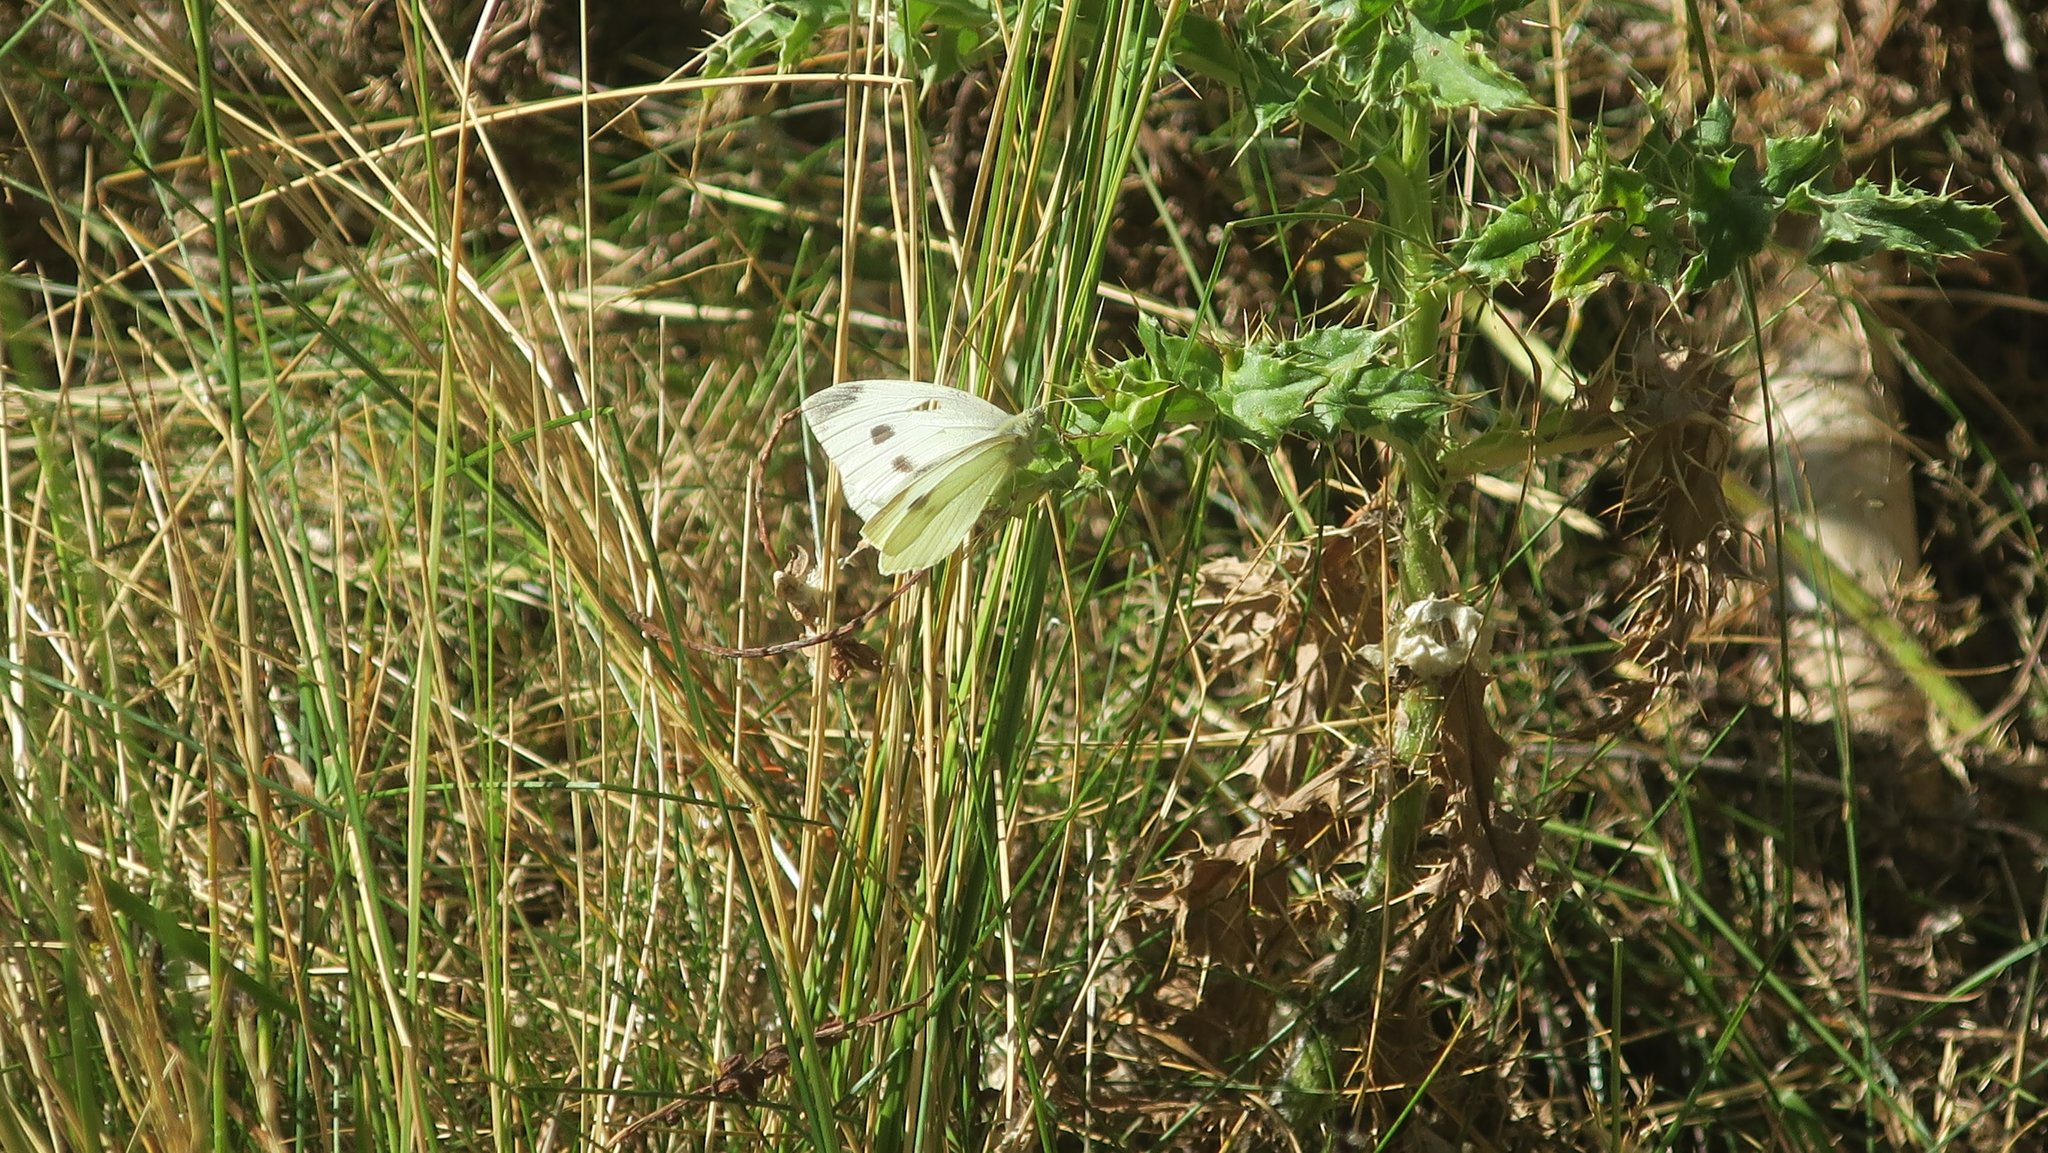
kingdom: Animalia
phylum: Arthropoda
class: Insecta
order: Lepidoptera
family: Pieridae
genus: Pieris
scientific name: Pieris rapae
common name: Small white
